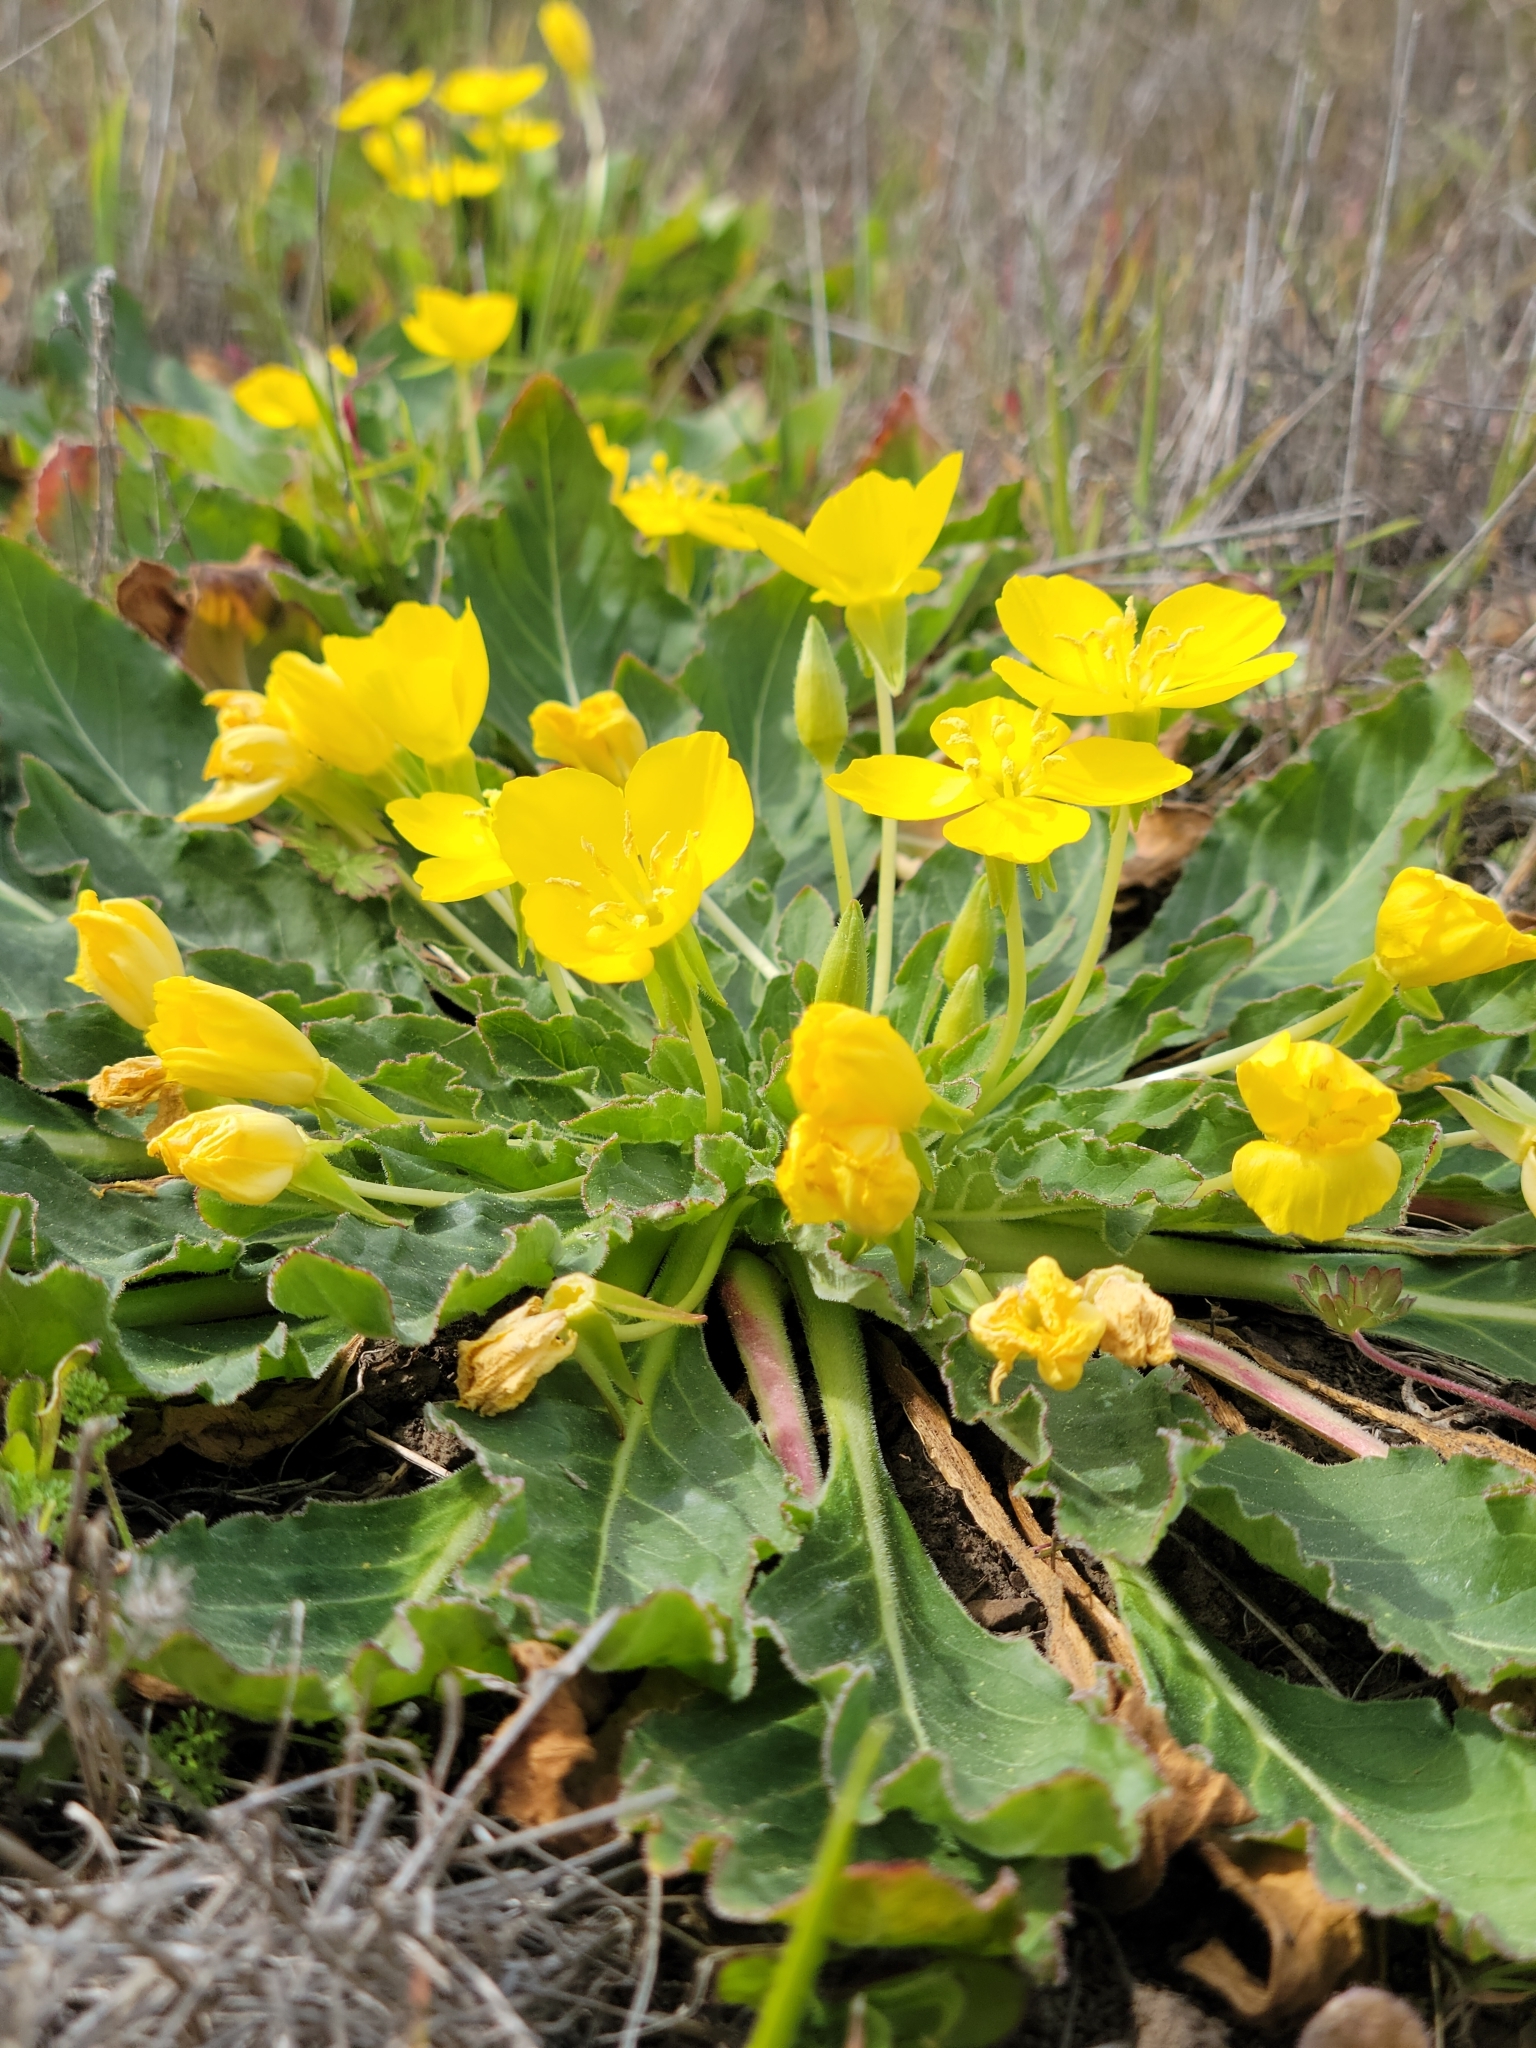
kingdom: Plantae
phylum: Tracheophyta
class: Magnoliopsida
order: Myrtales
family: Onagraceae
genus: Taraxia
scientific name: Taraxia ovata
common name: Goldeneggs
